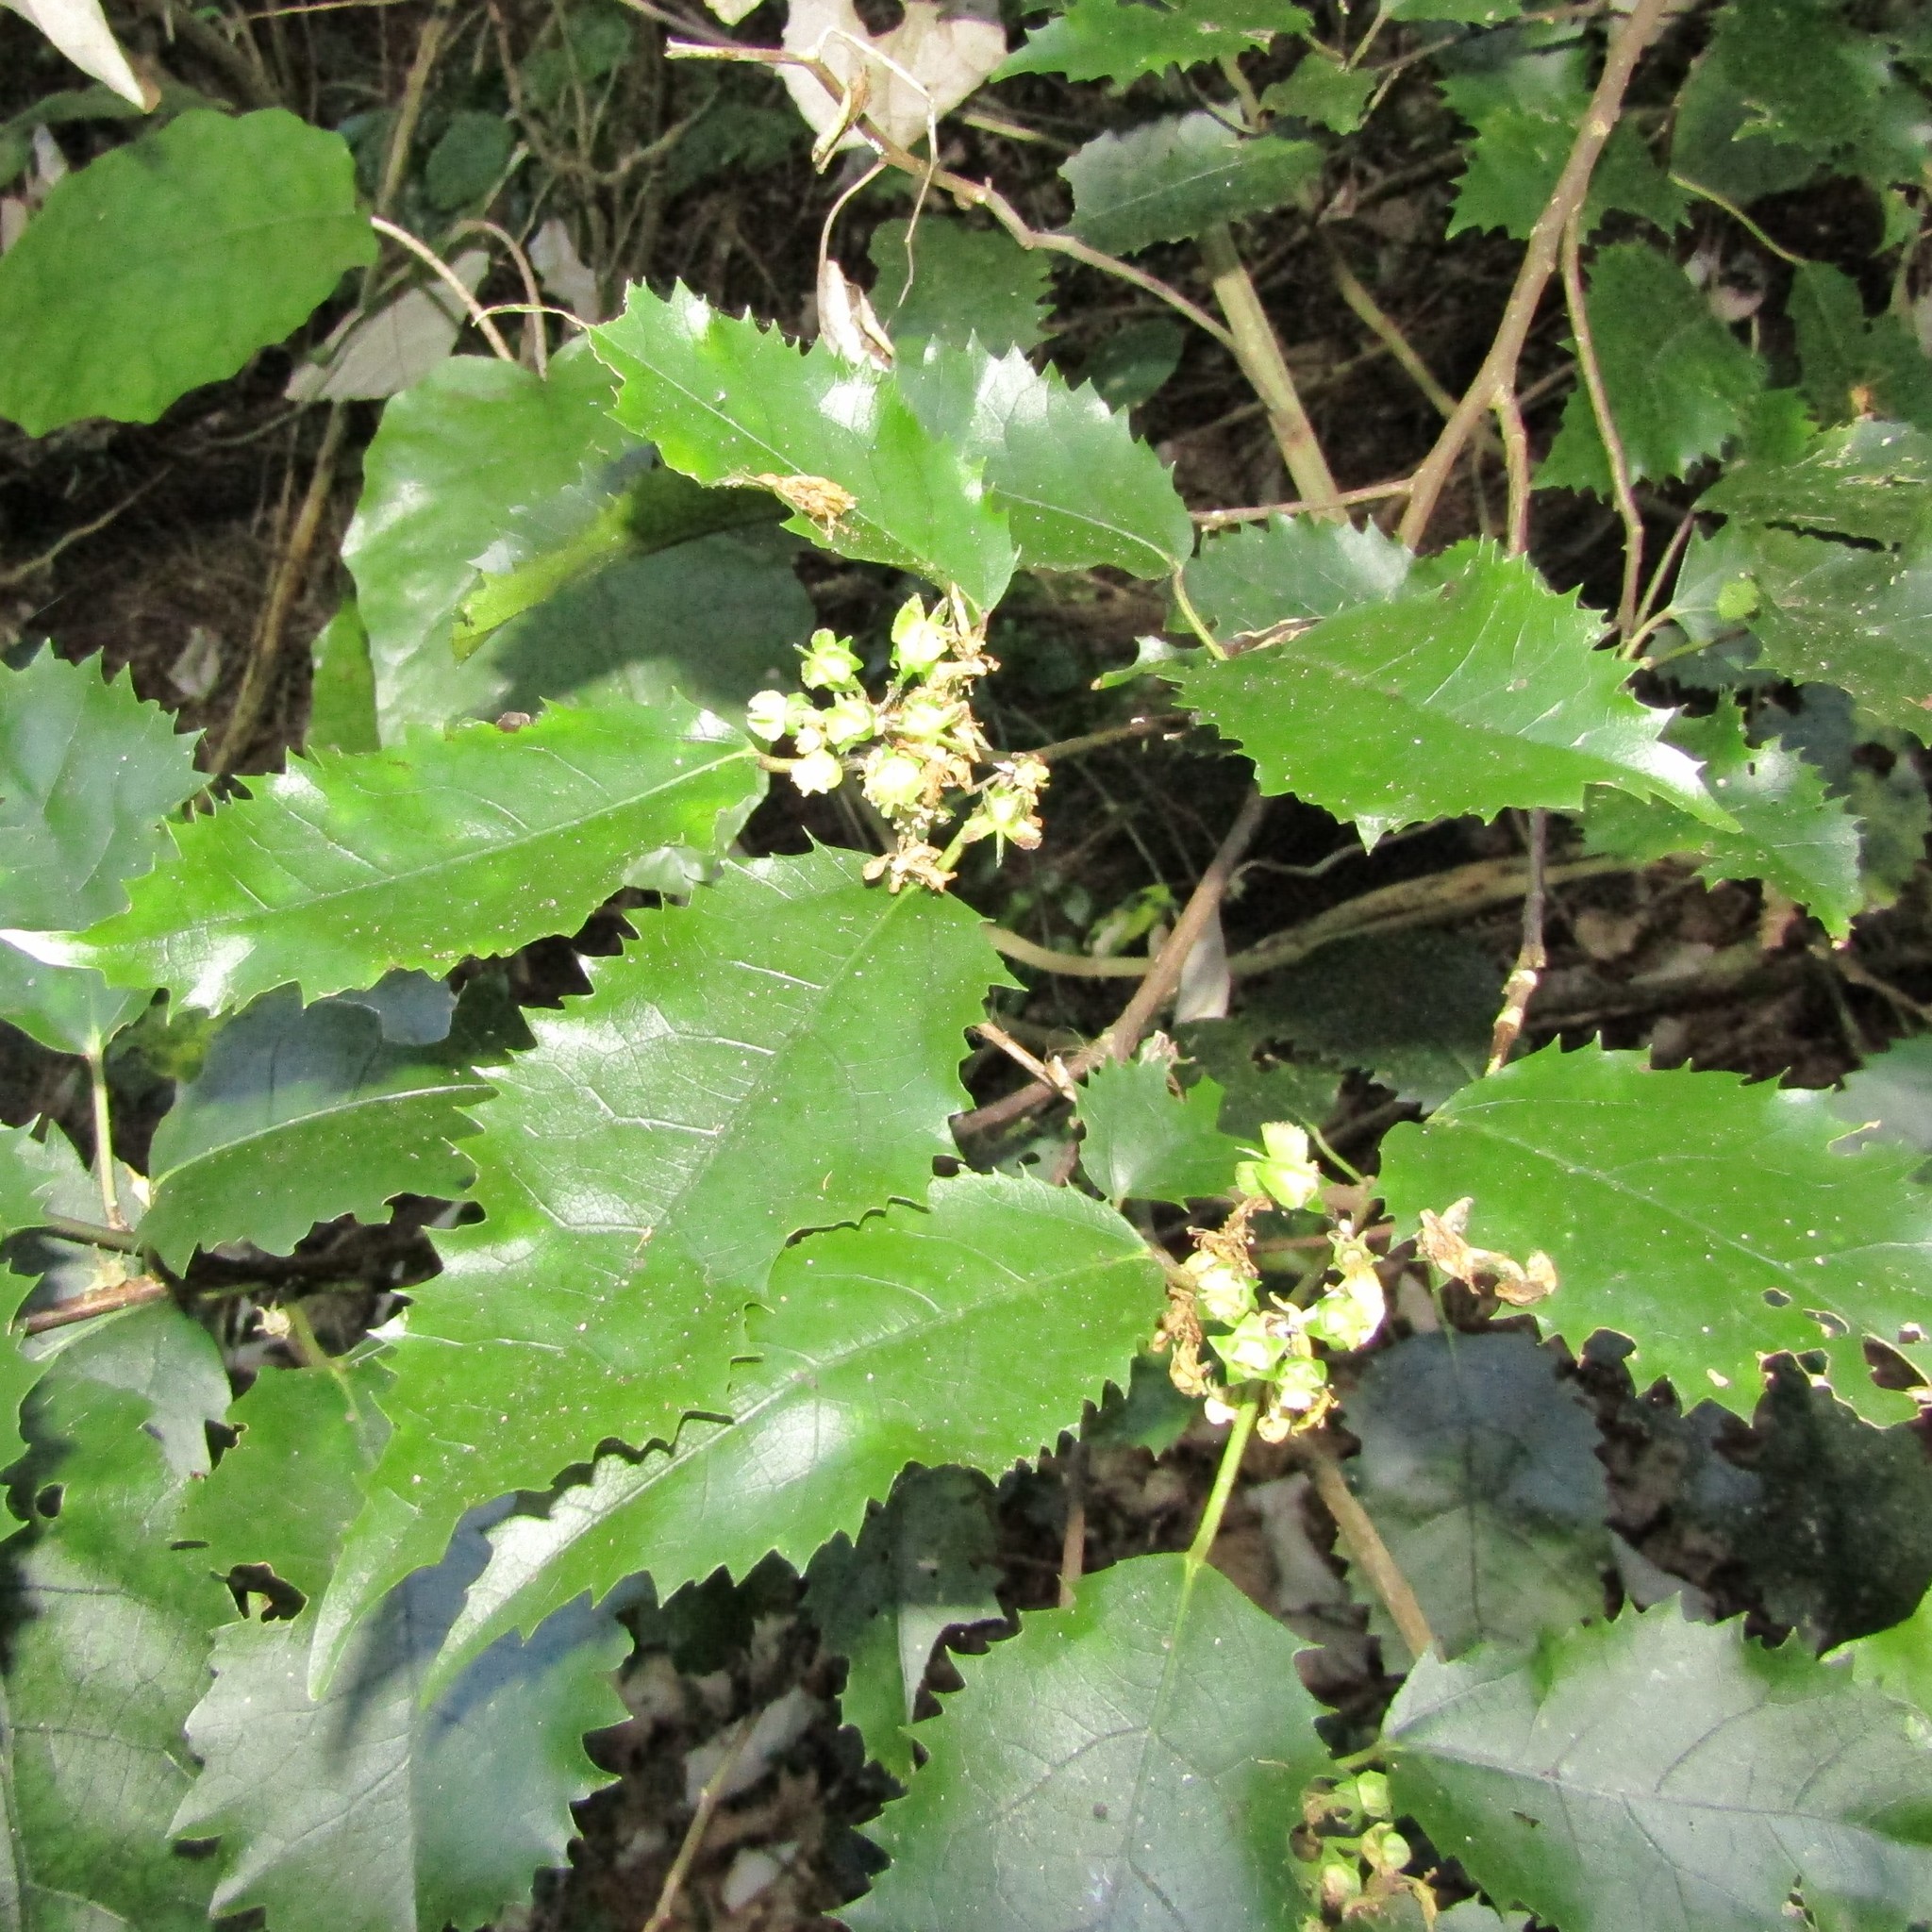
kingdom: Plantae
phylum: Tracheophyta
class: Magnoliopsida
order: Malvales
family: Malvaceae
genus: Hoheria
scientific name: Hoheria populnea
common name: Lacebark
